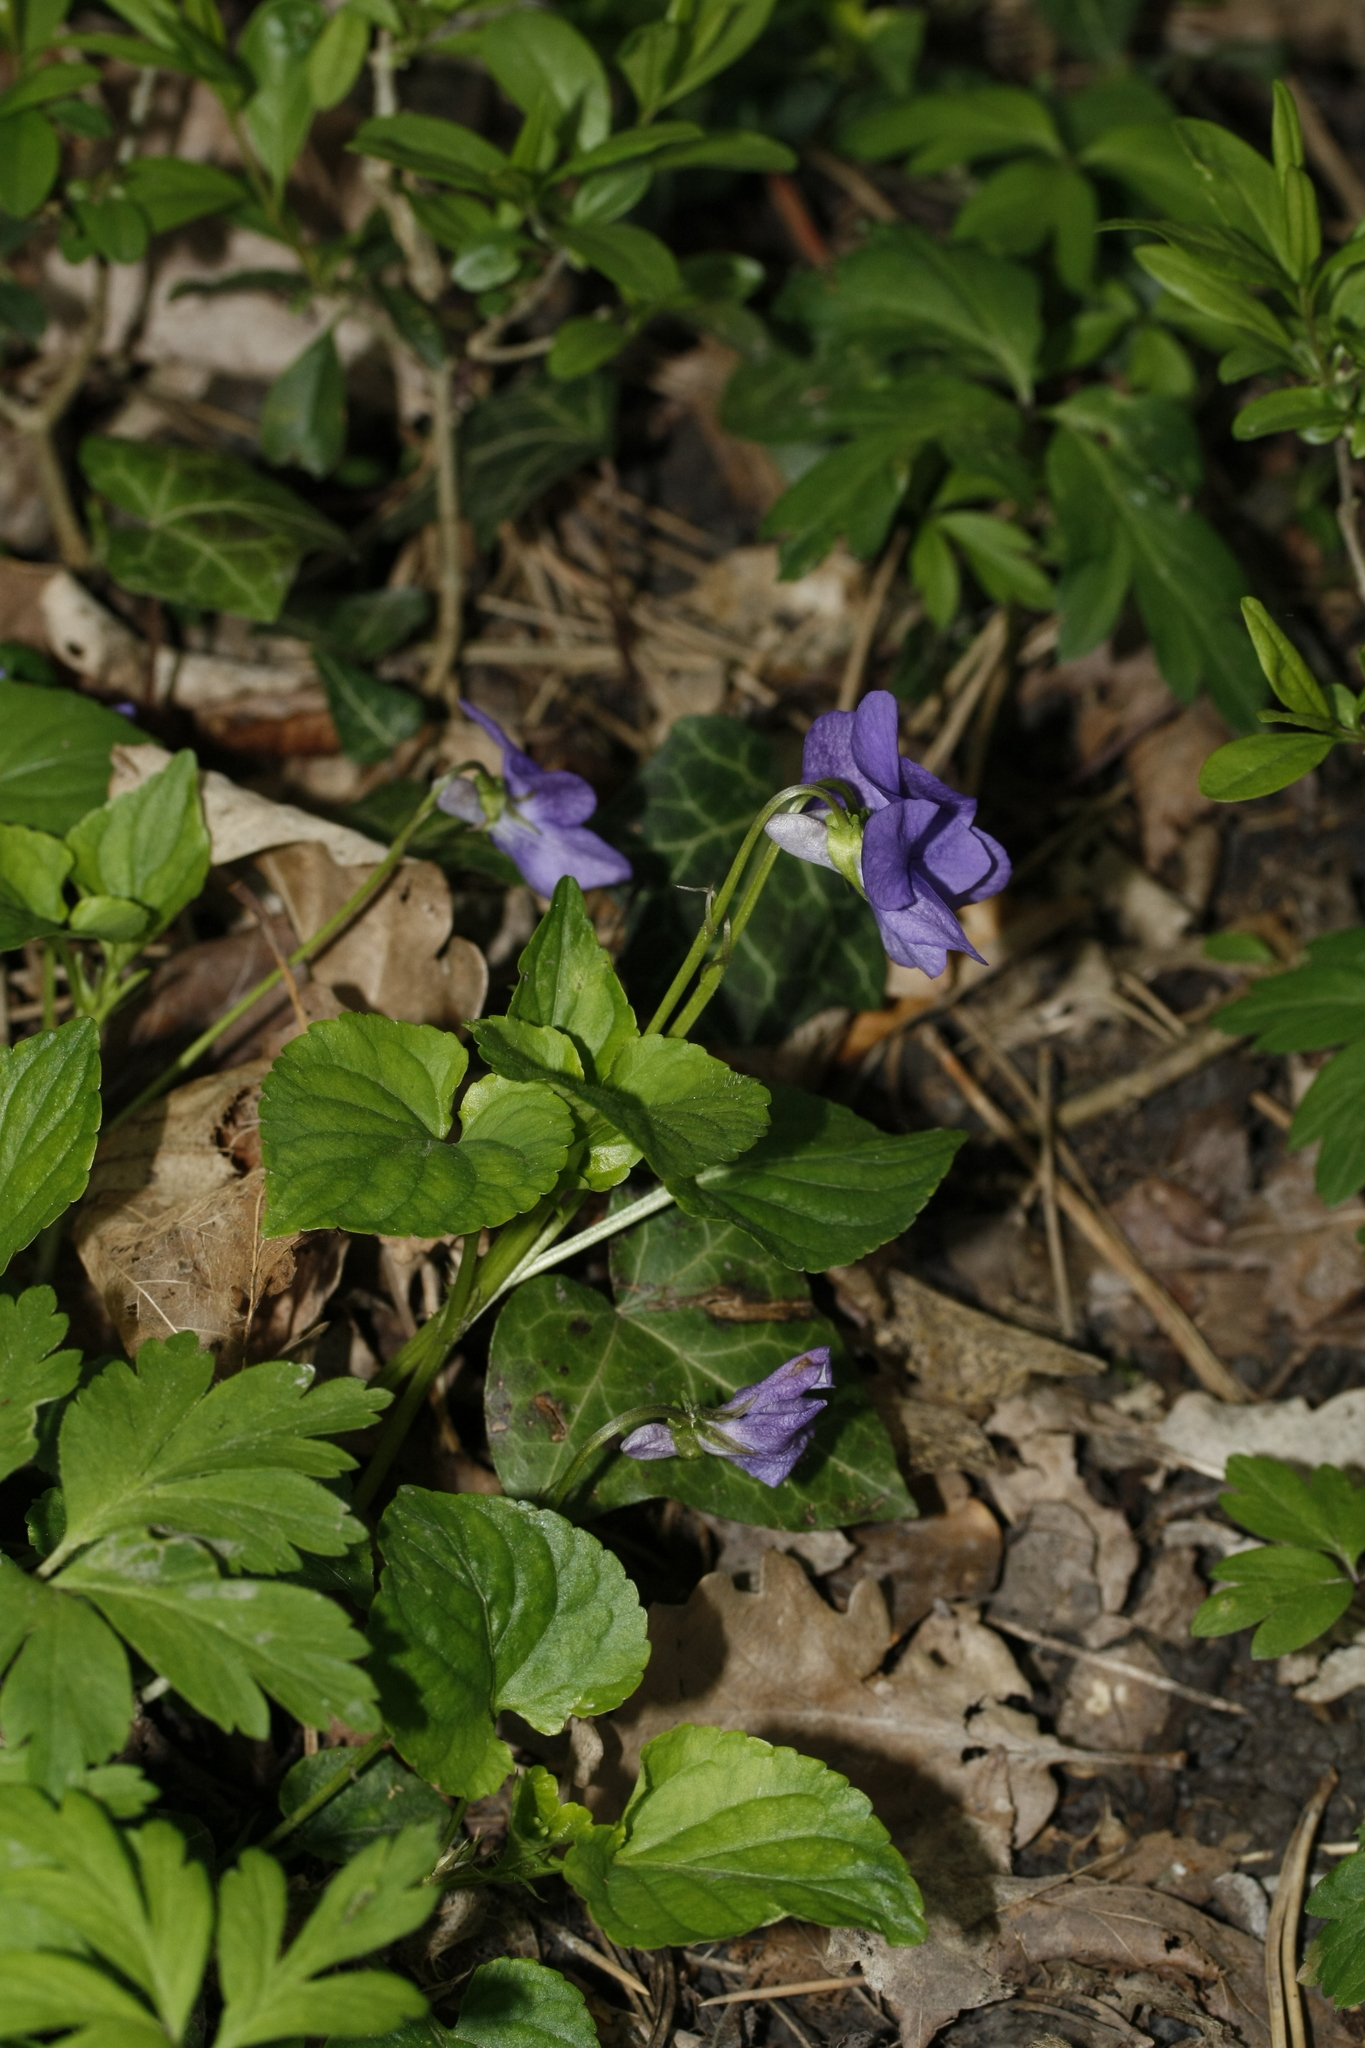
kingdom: Plantae
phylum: Tracheophyta
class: Magnoliopsida
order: Malpighiales
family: Violaceae
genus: Viola
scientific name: Viola riviniana
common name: Common dog-violet
